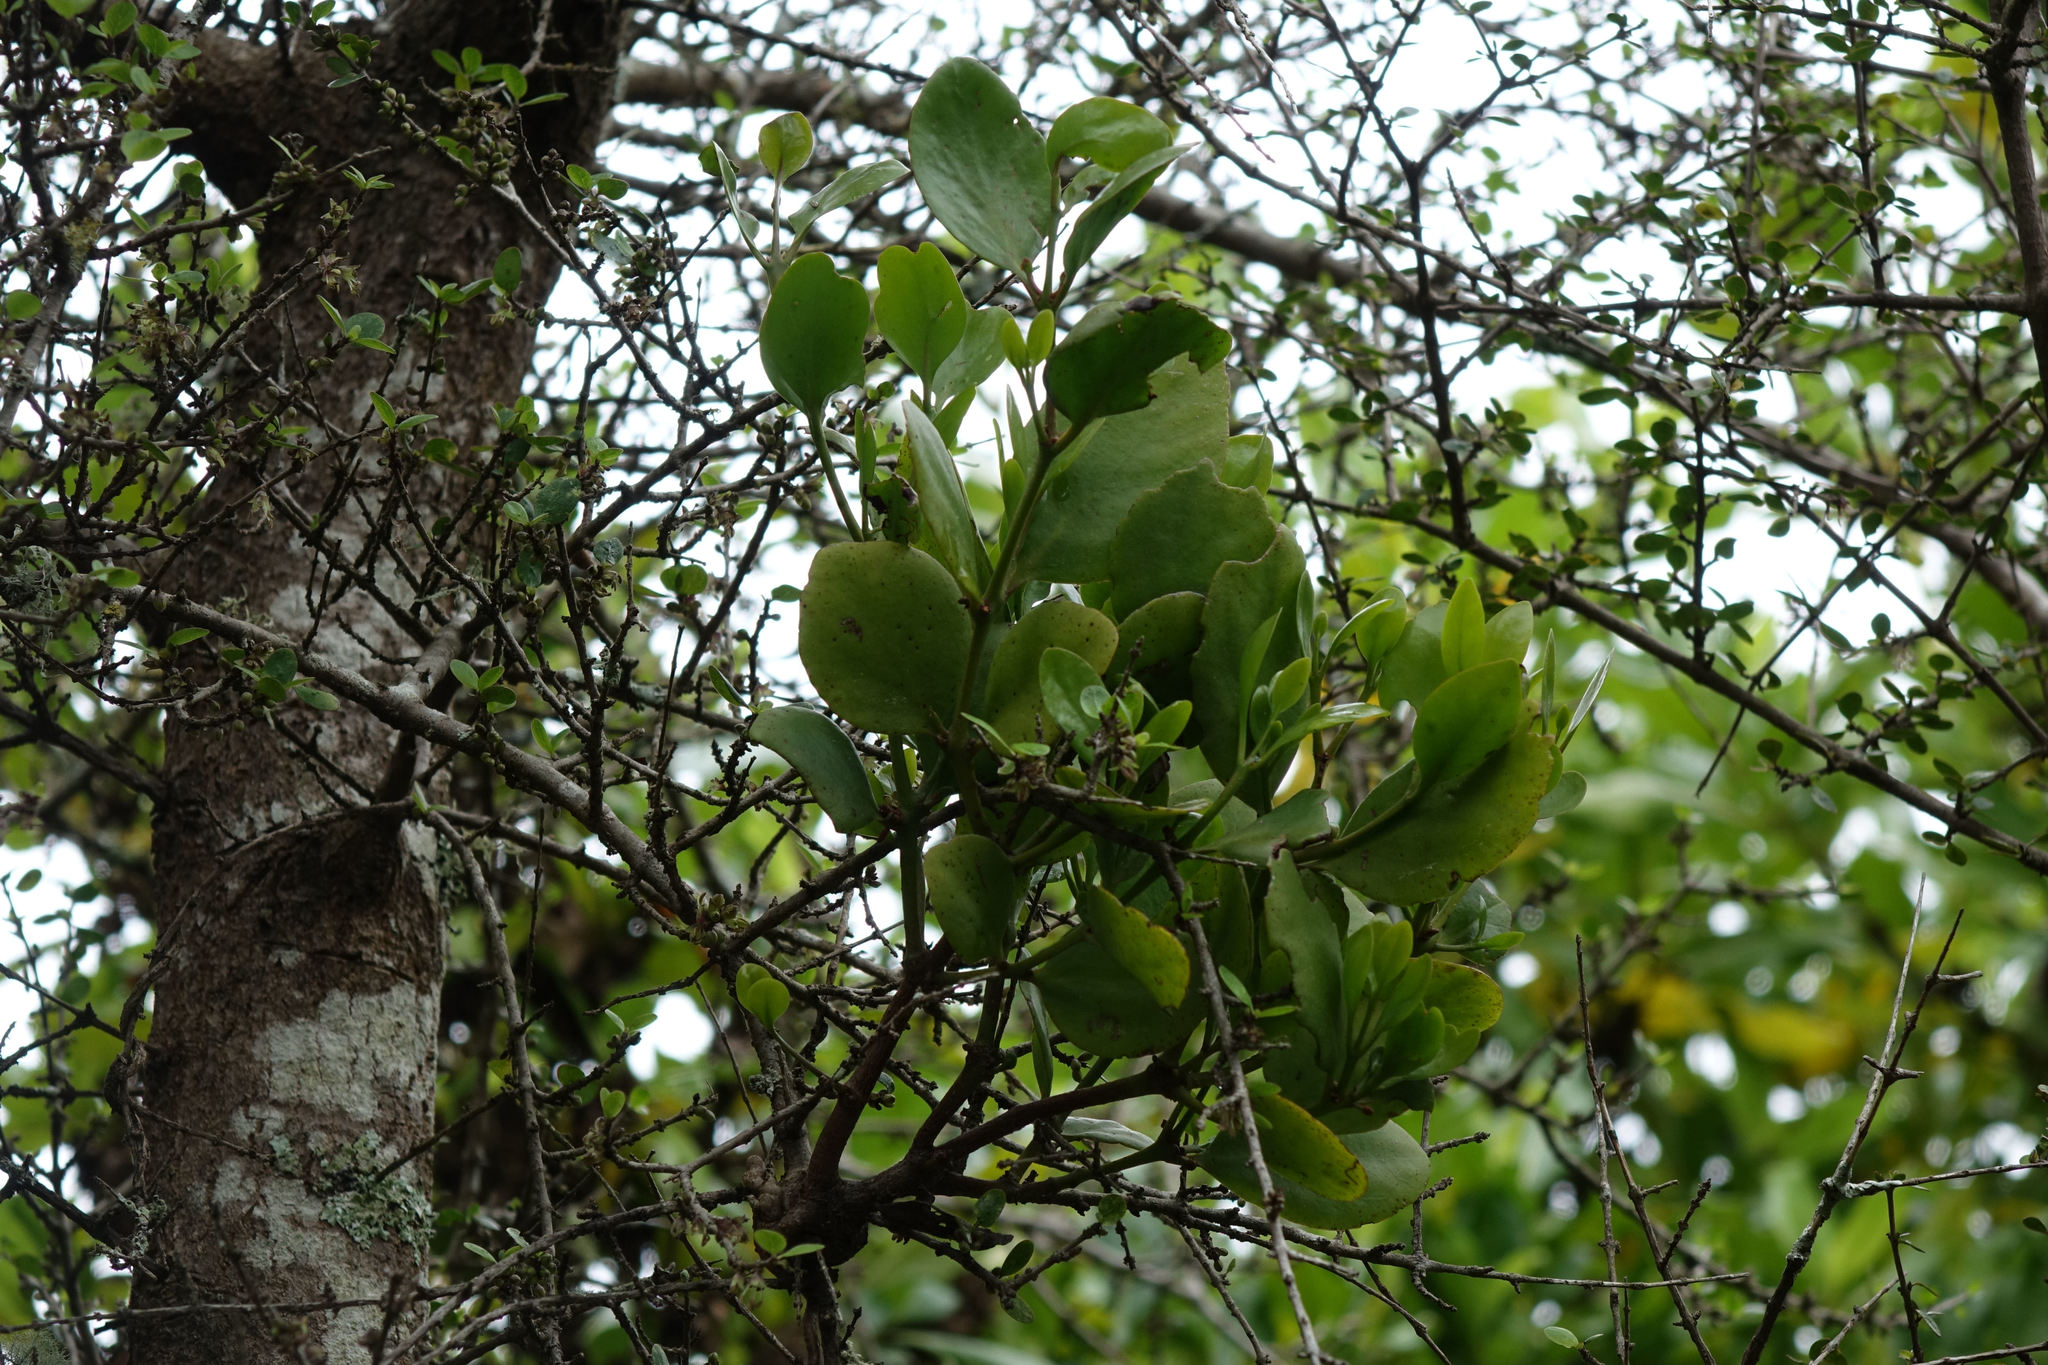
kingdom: Plantae
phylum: Tracheophyta
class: Magnoliopsida
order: Santalales
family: Loranthaceae
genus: Ileostylus
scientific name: Ileostylus micranthus
